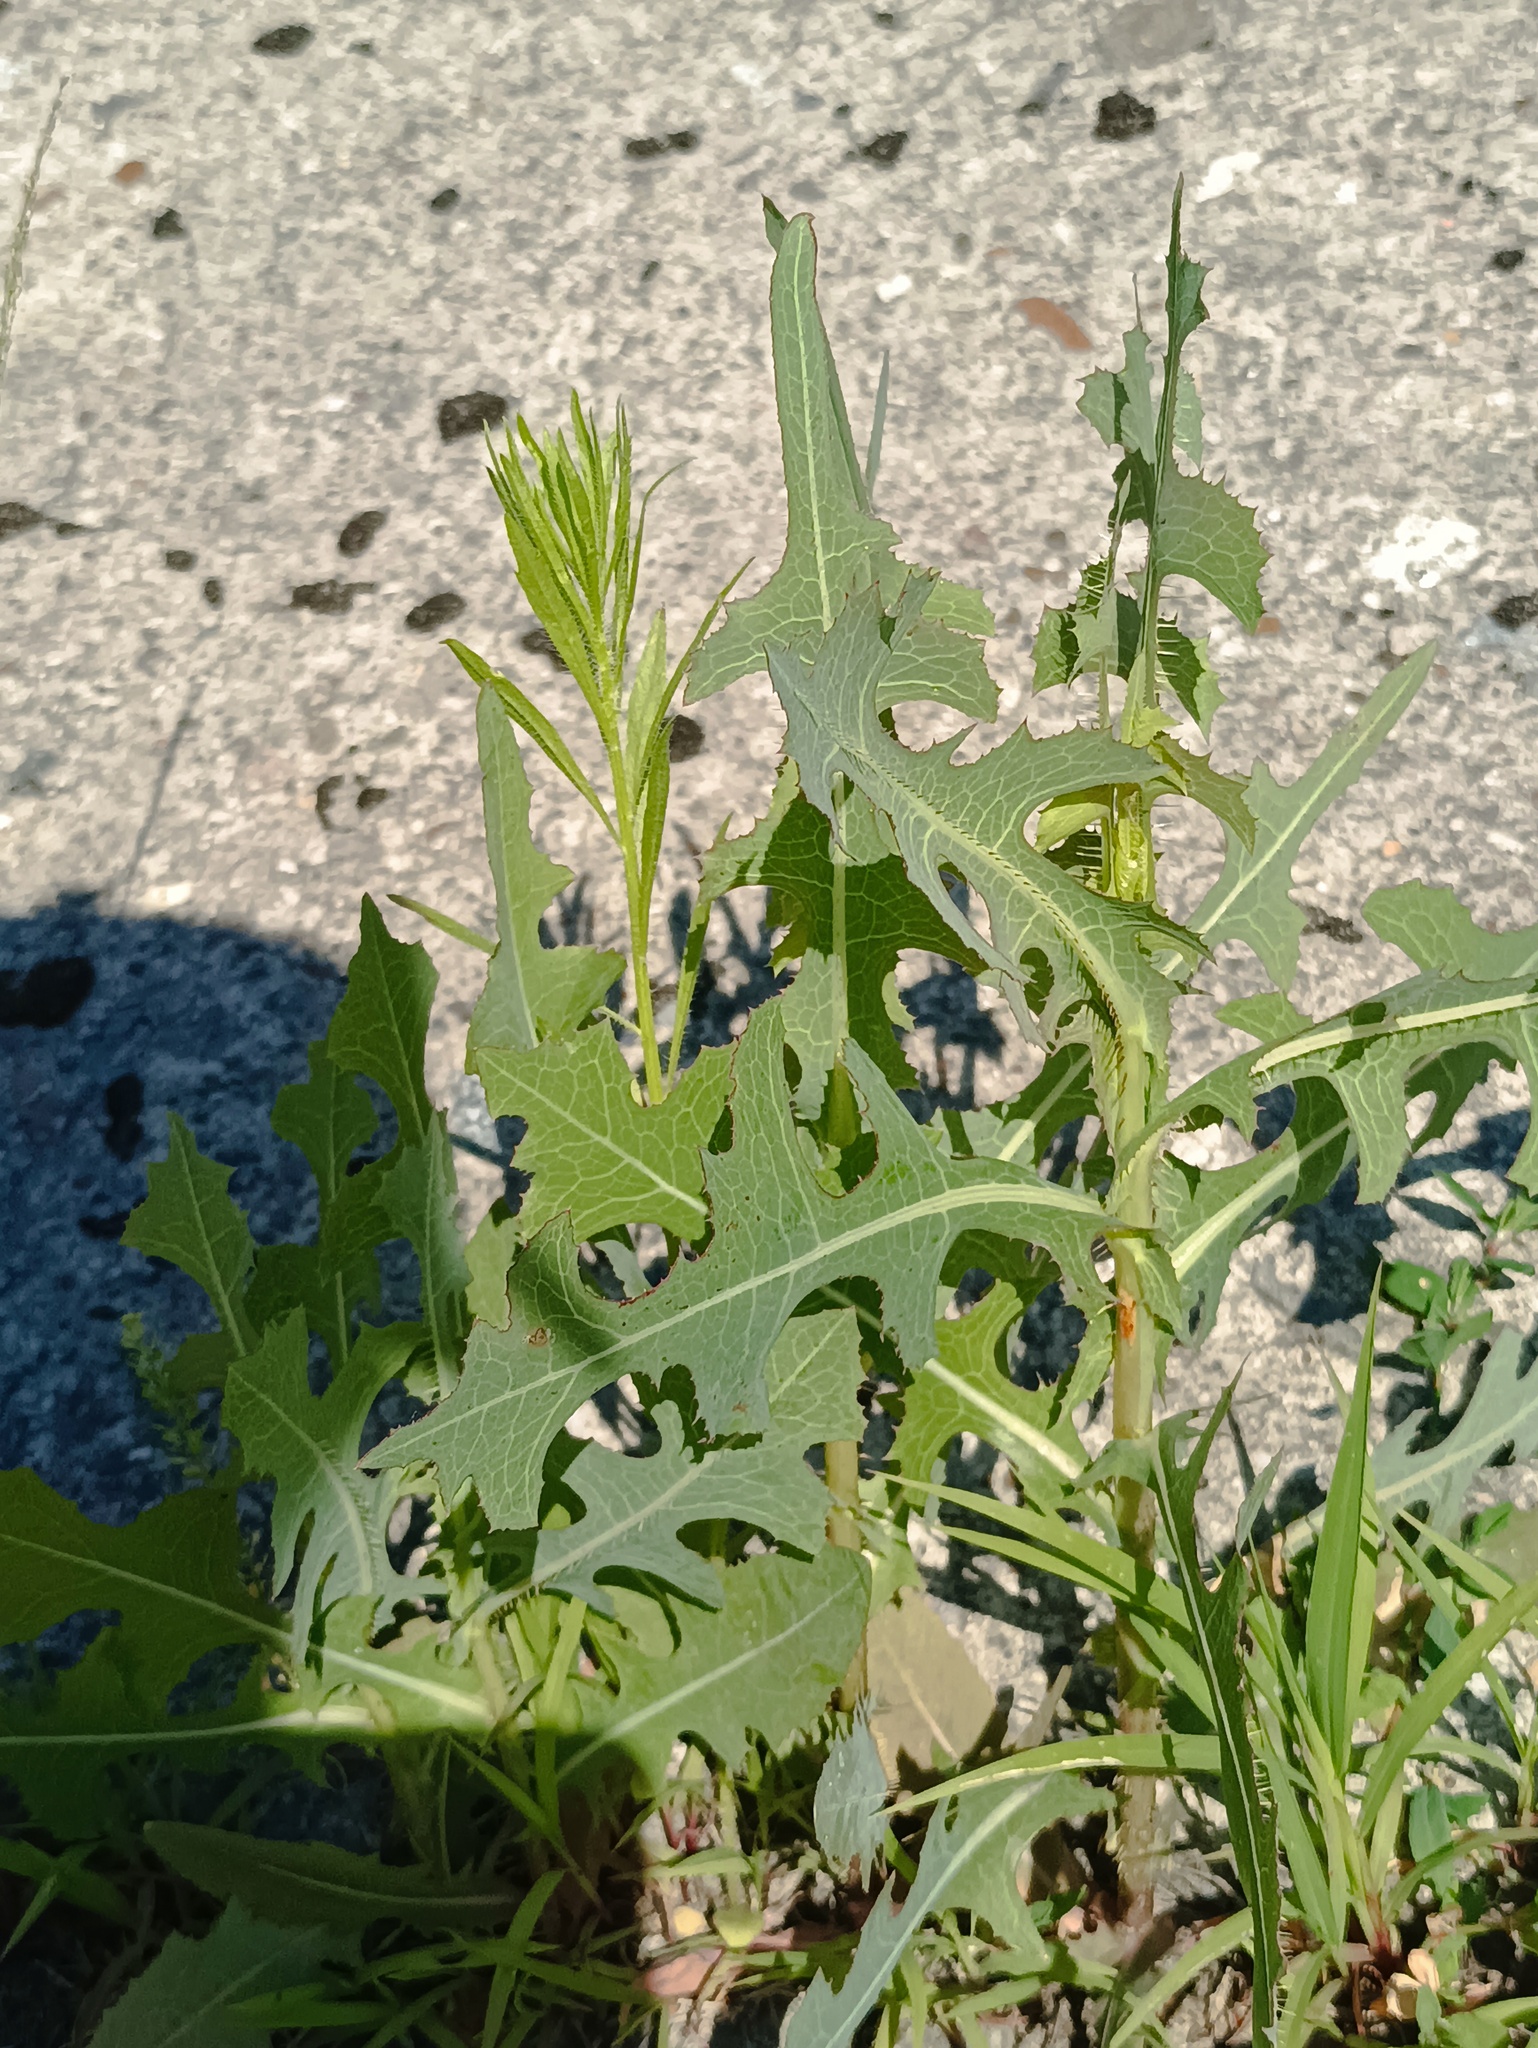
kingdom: Plantae
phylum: Tracheophyta
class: Magnoliopsida
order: Asterales
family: Asteraceae
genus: Lactuca
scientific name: Lactuca serriola
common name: Prickly lettuce
